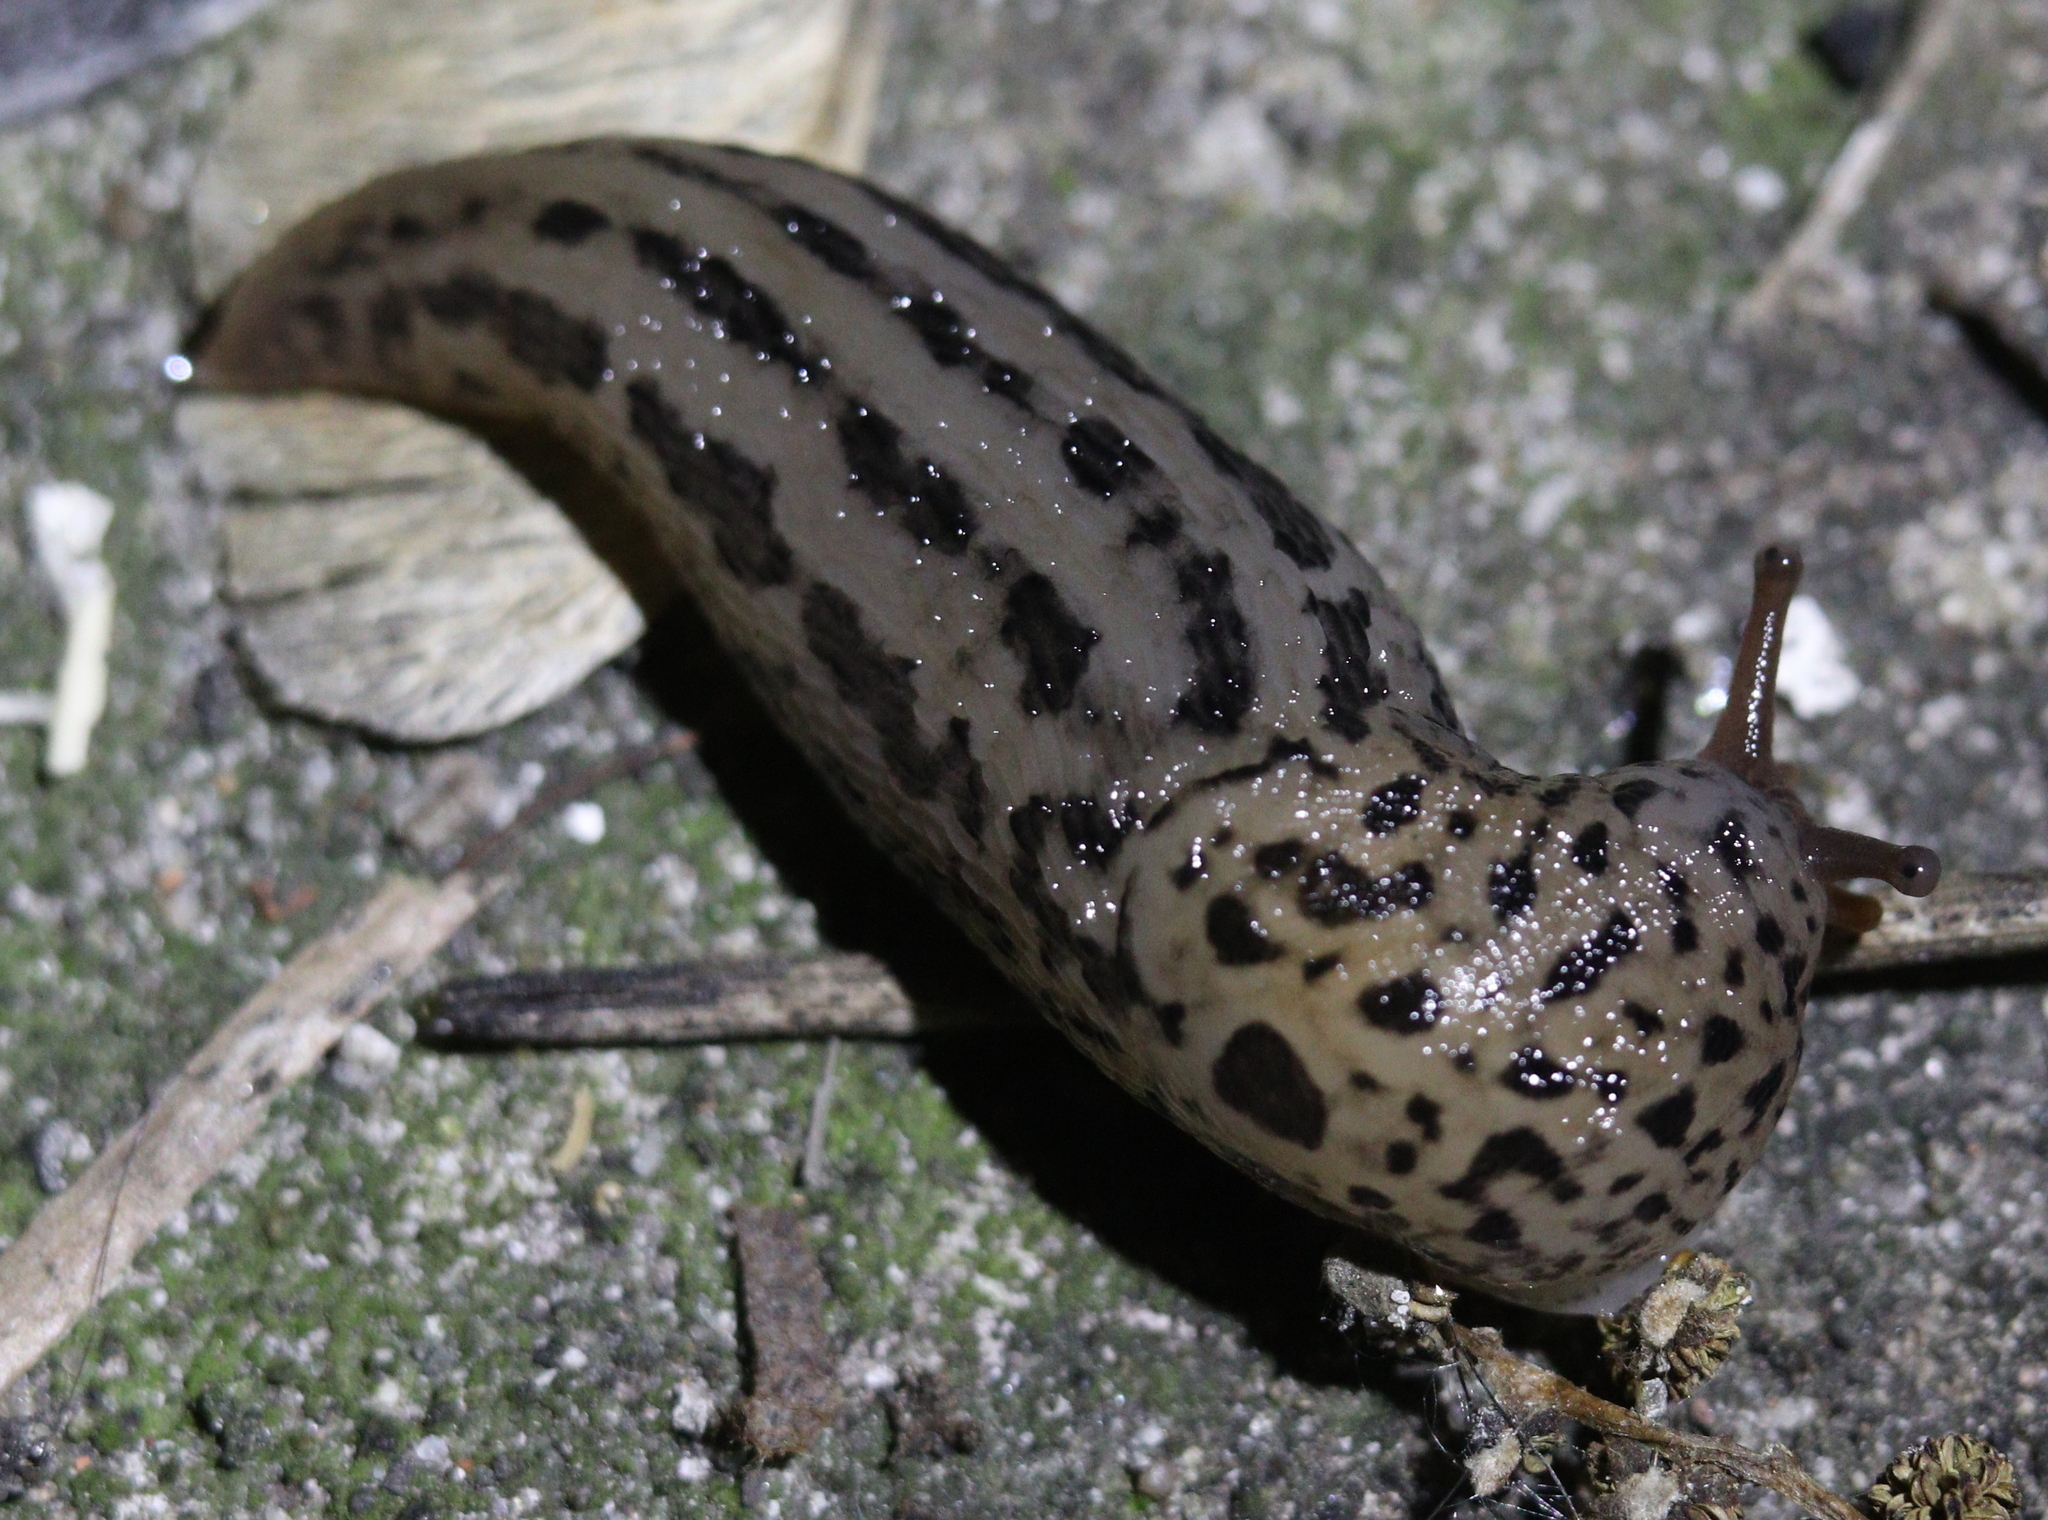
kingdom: Animalia
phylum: Mollusca
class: Gastropoda
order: Stylommatophora
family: Limacidae
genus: Limax
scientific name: Limax maximus
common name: Great grey slug
